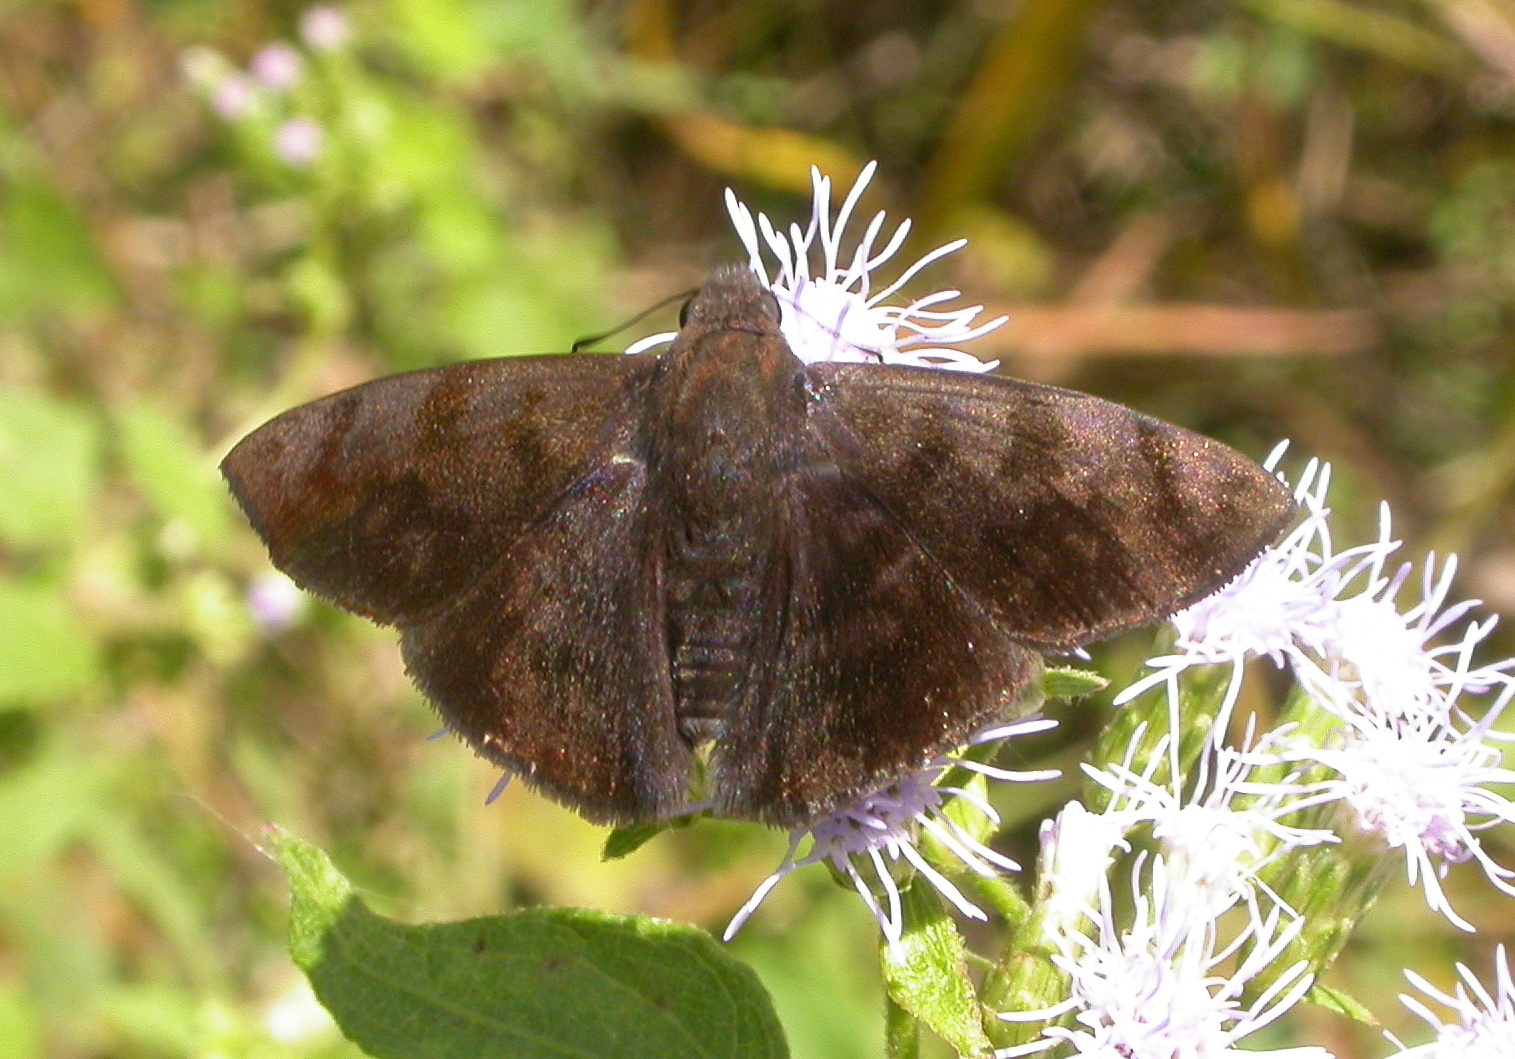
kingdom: Animalia
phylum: Arthropoda
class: Insecta
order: Lepidoptera
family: Hesperiidae
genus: Pellicia
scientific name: Pellicia costimacula
